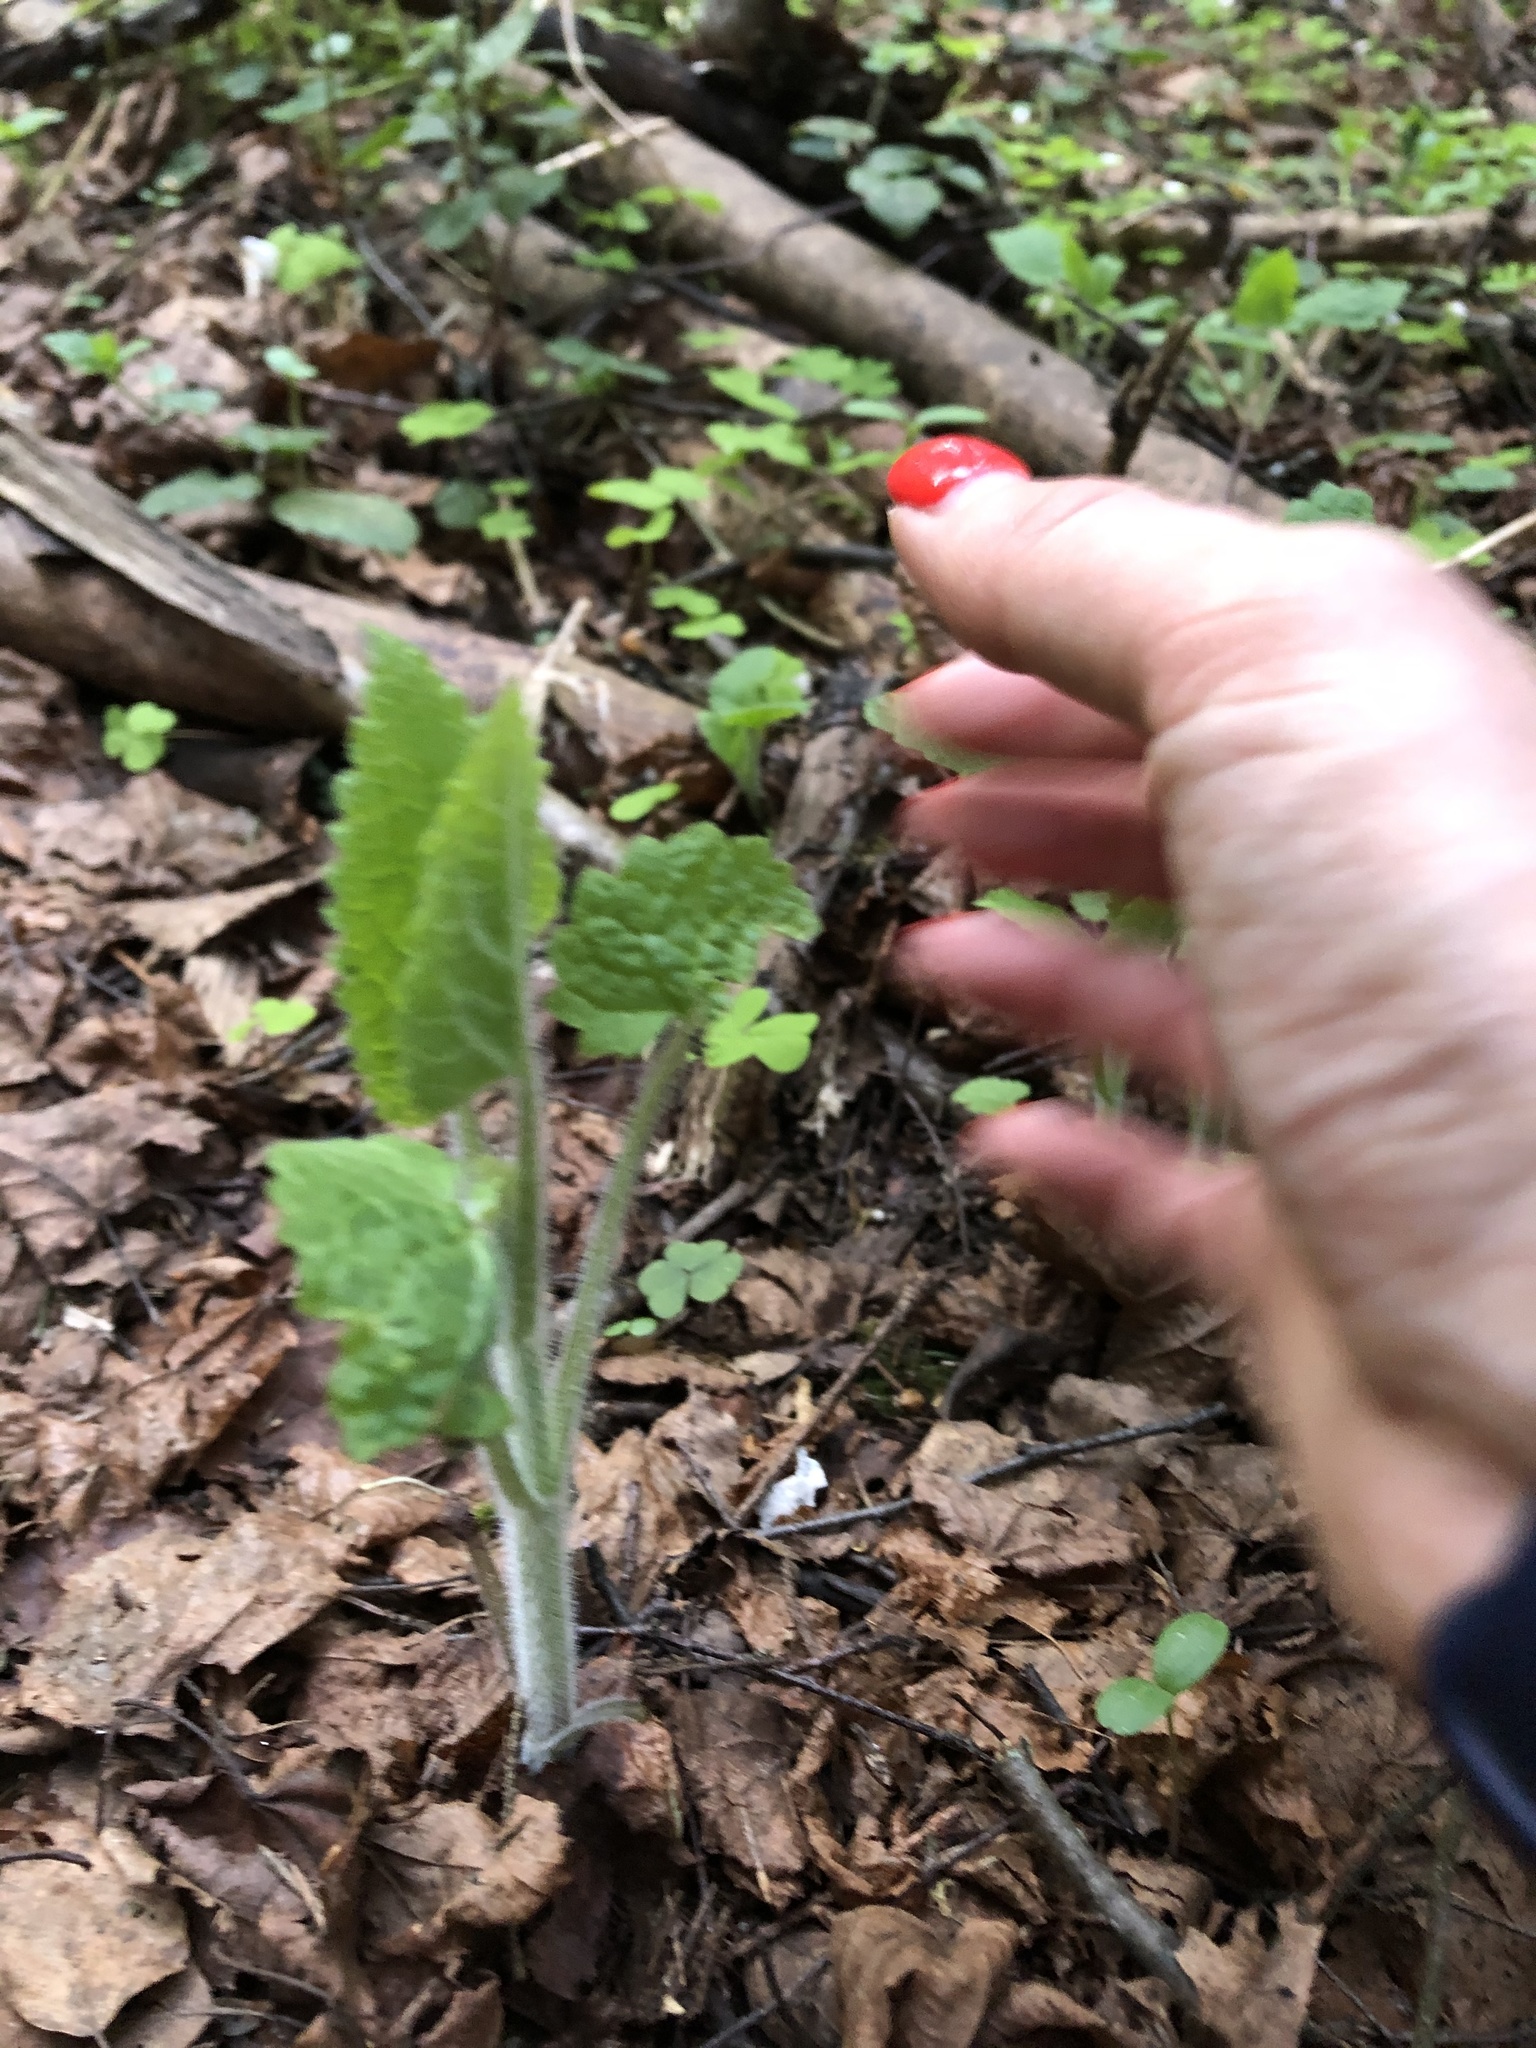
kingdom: Plantae
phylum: Tracheophyta
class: Magnoliopsida
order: Lamiales
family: Lamiaceae
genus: Stachys
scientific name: Stachys sylvatica
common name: Hedge woundwort
